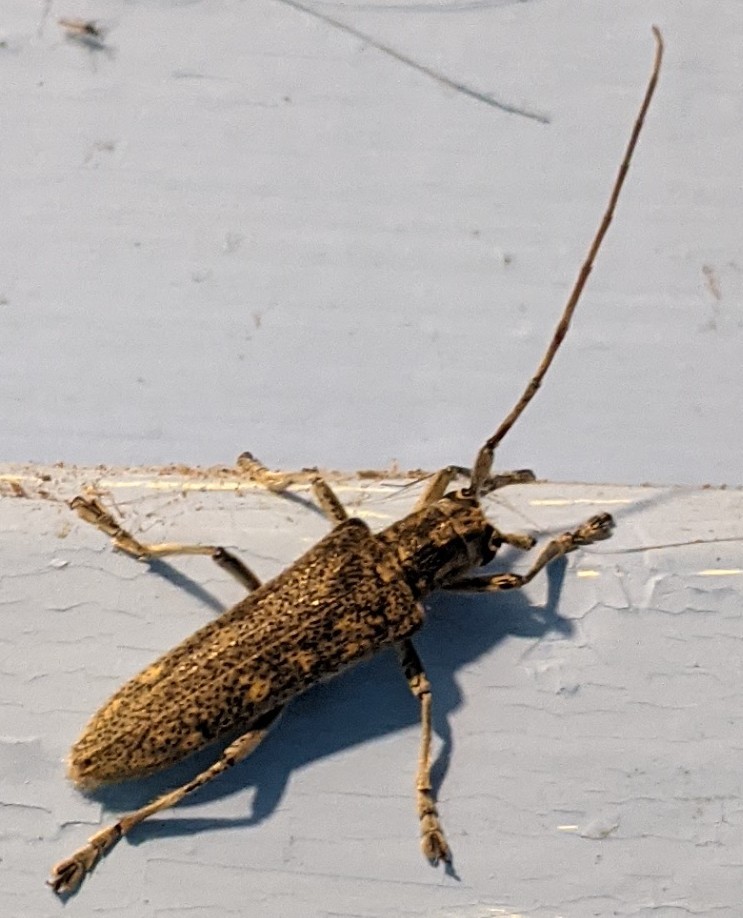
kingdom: Animalia
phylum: Arthropoda
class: Insecta
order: Coleoptera
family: Cerambycidae
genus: Saperda
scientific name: Saperda calcarata
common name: Poplar borer
